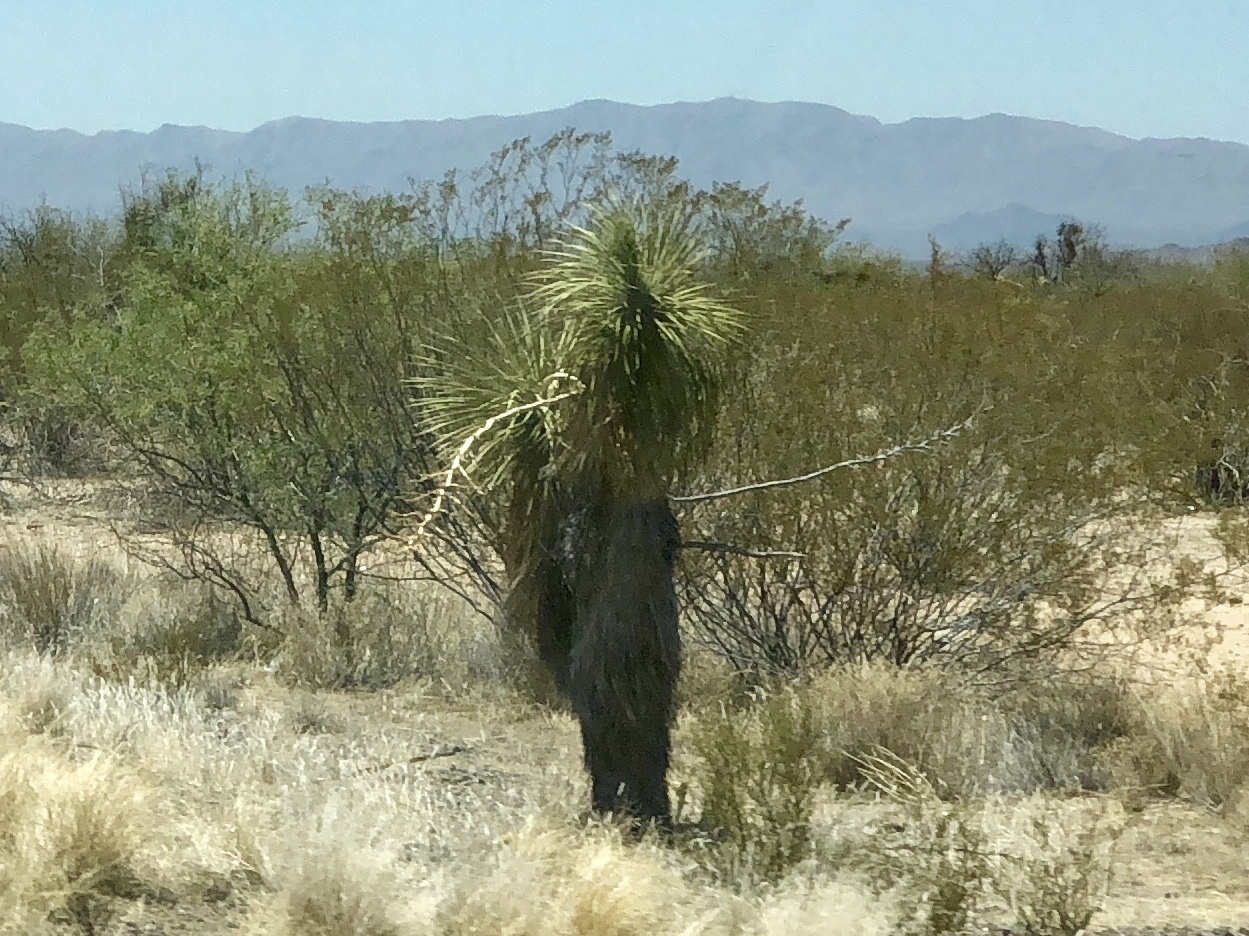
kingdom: Plantae
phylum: Tracheophyta
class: Liliopsida
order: Asparagales
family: Asparagaceae
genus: Yucca
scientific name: Yucca elata
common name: Palmella
